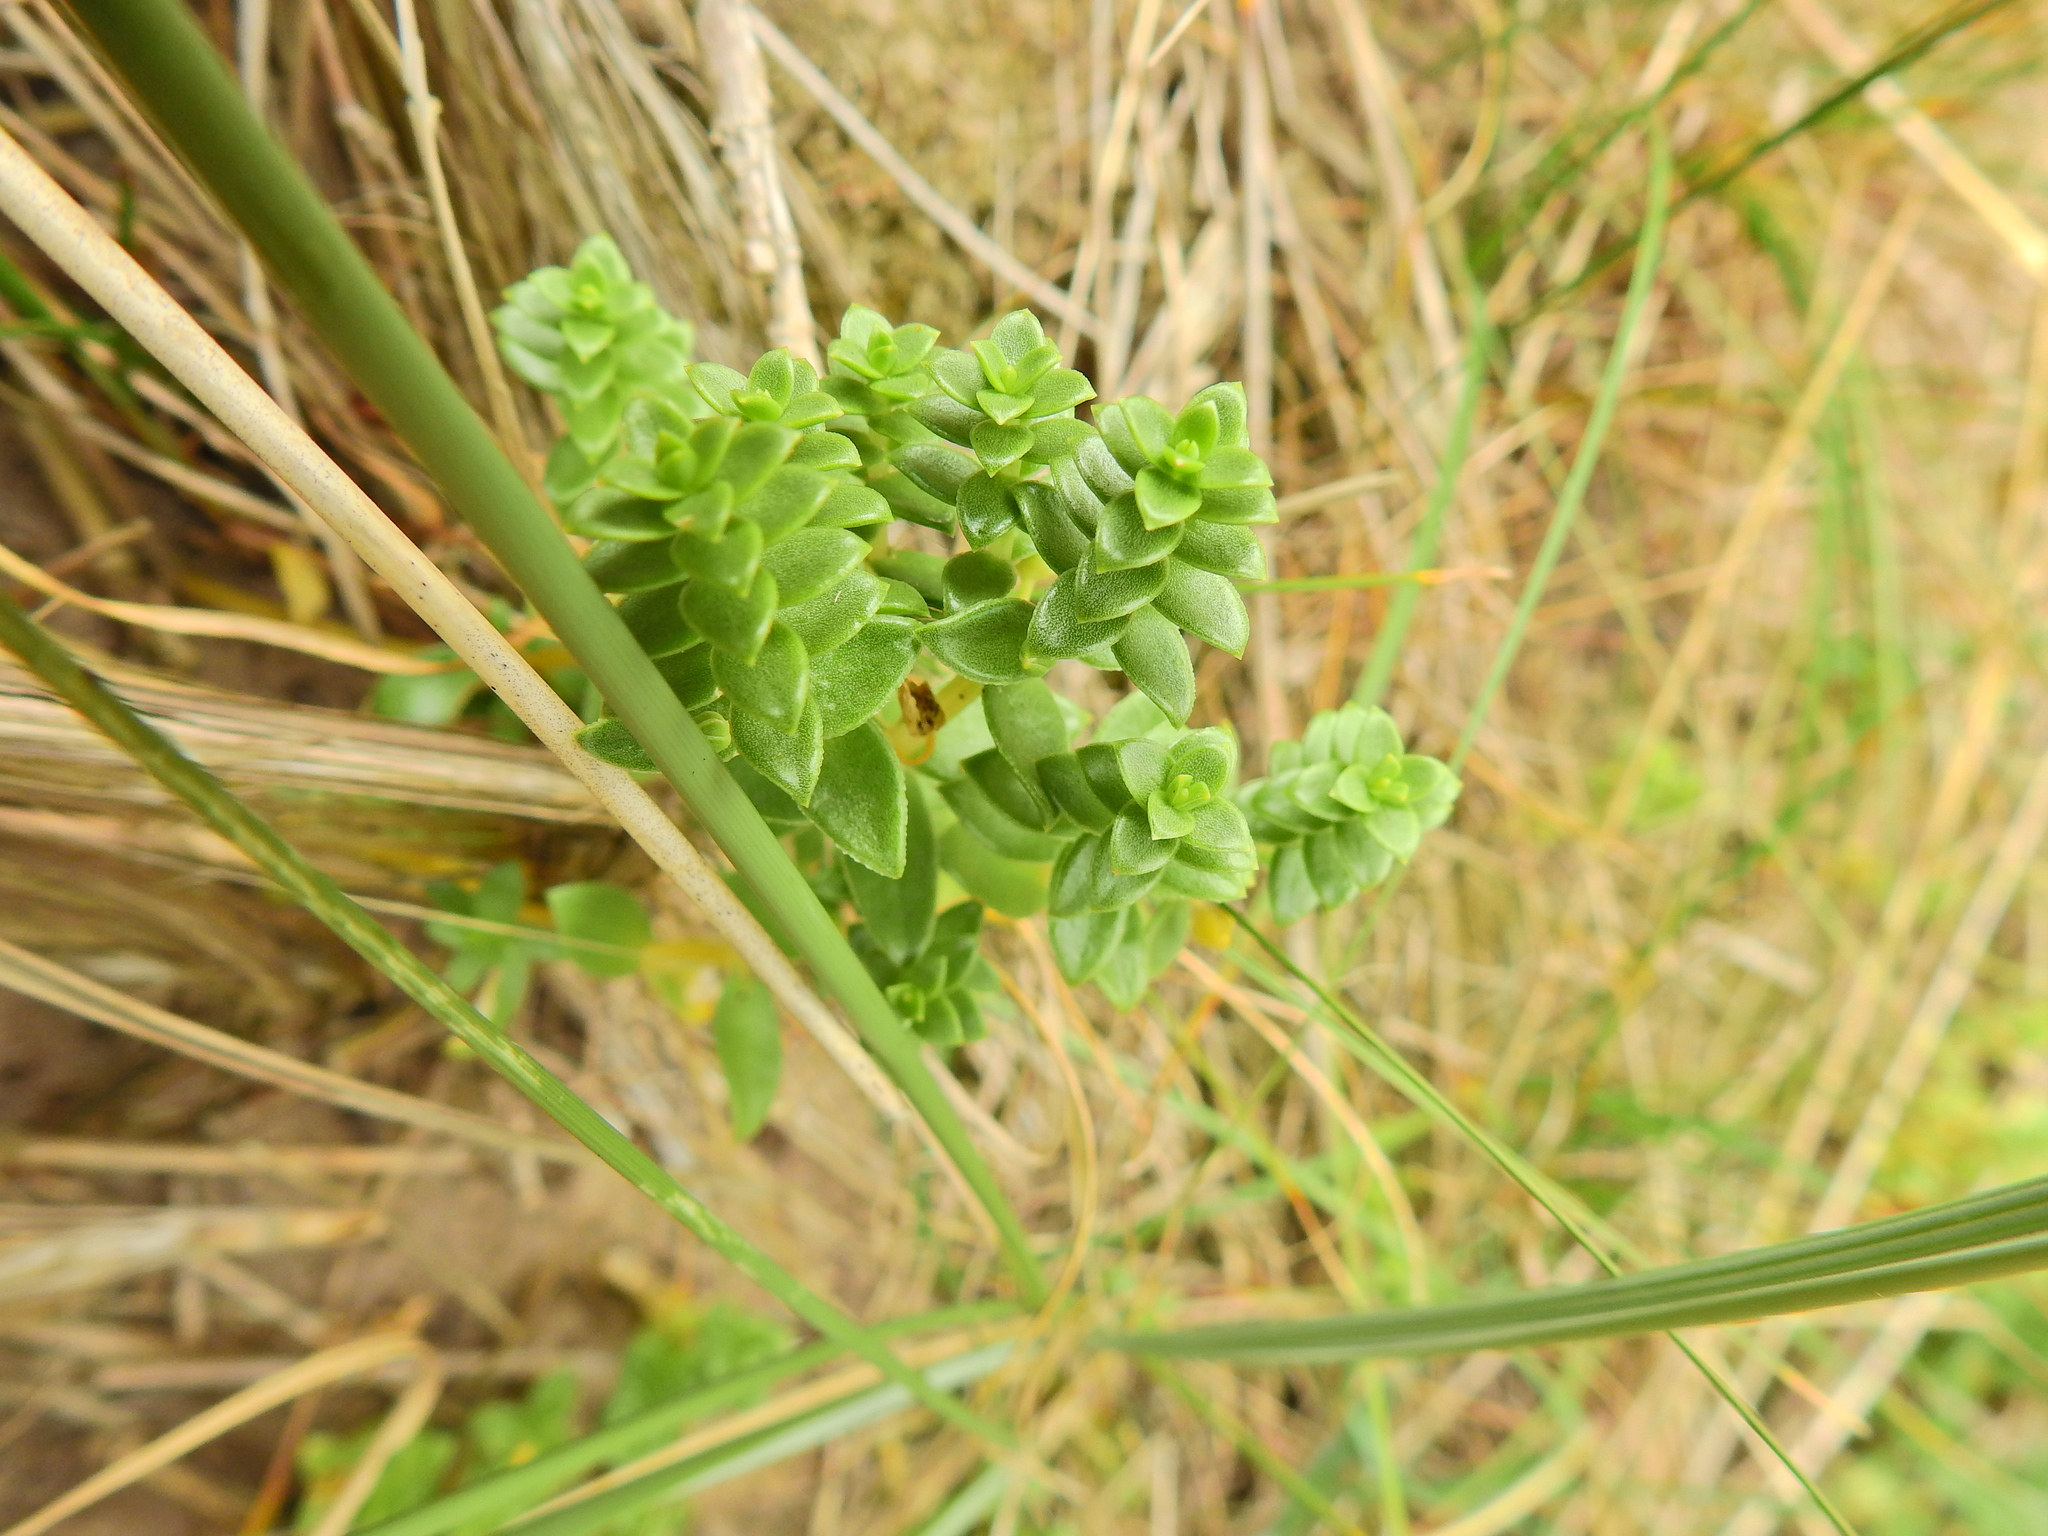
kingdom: Plantae
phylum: Tracheophyta
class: Magnoliopsida
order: Caryophyllales
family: Caryophyllaceae
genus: Honckenya
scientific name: Honckenya peploides
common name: Sea sandwort
